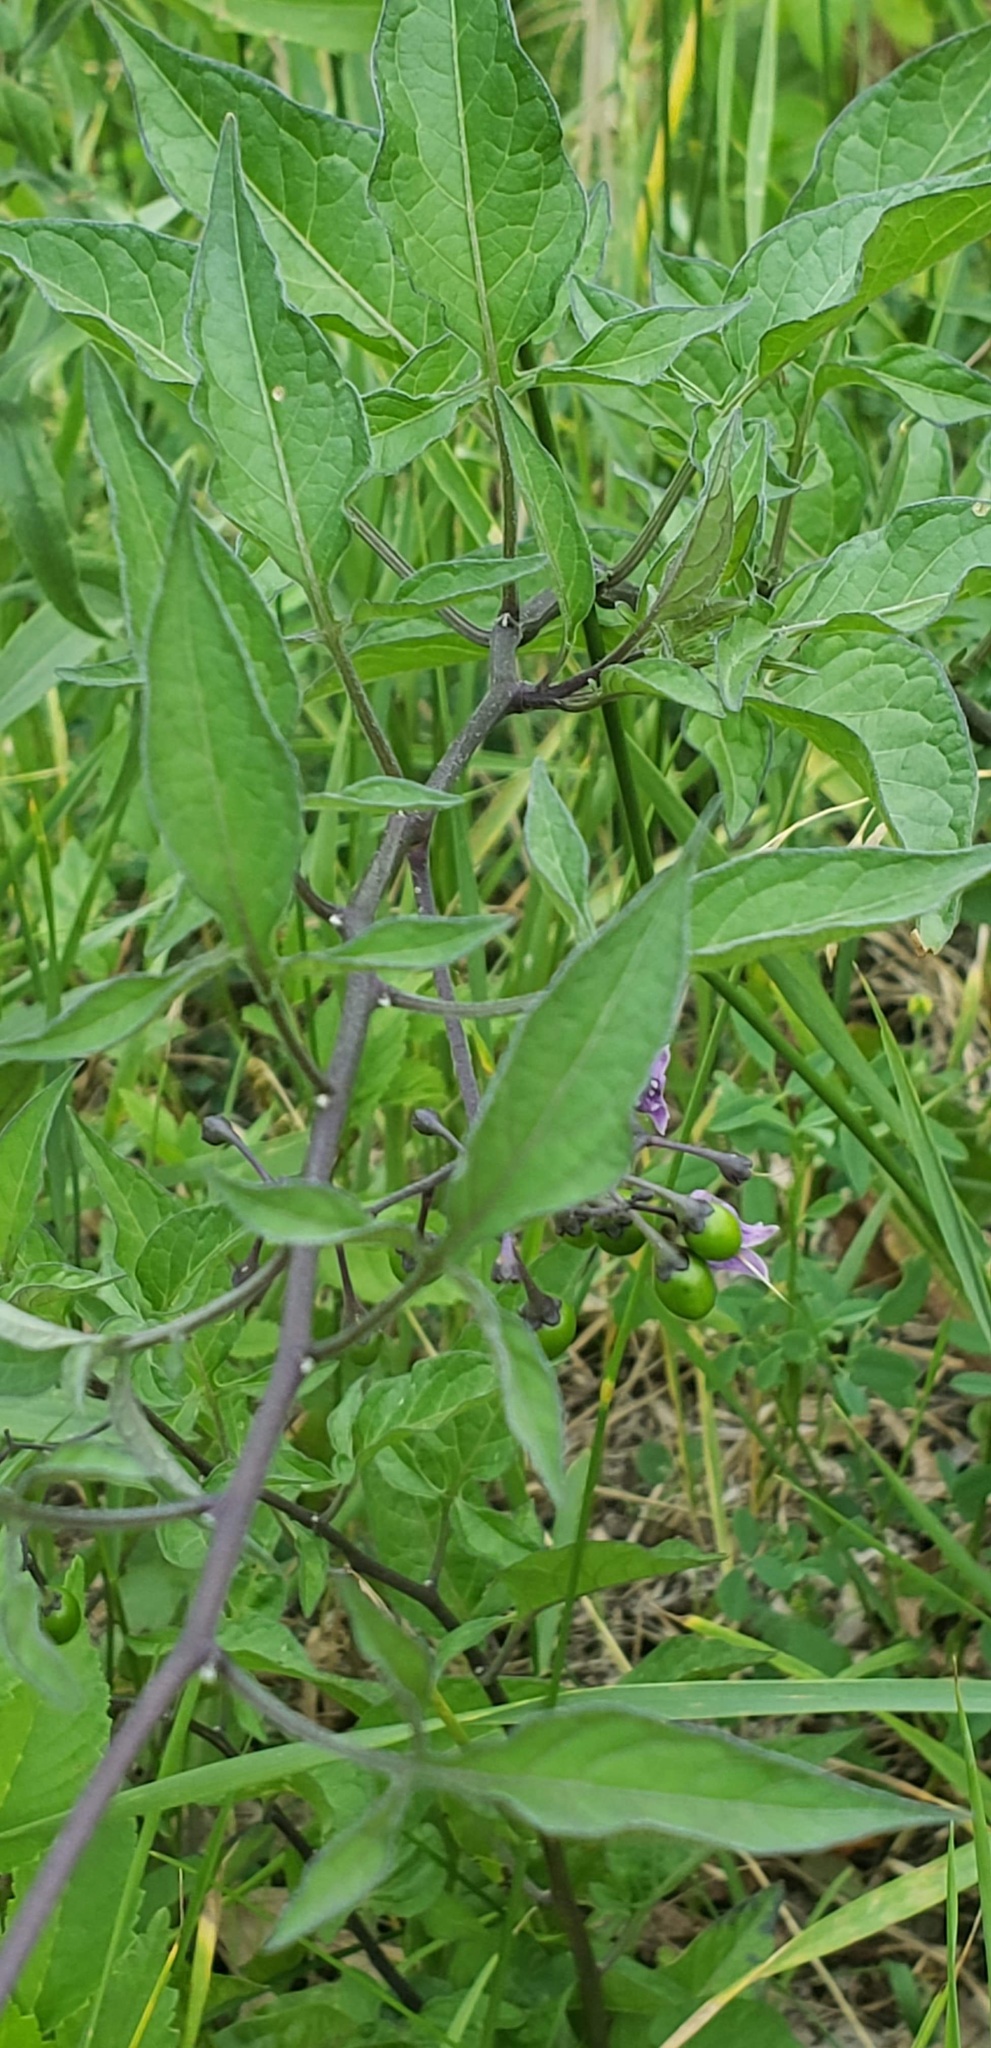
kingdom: Plantae
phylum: Tracheophyta
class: Magnoliopsida
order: Solanales
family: Solanaceae
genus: Solanum
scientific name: Solanum dulcamara
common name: Climbing nightshade
